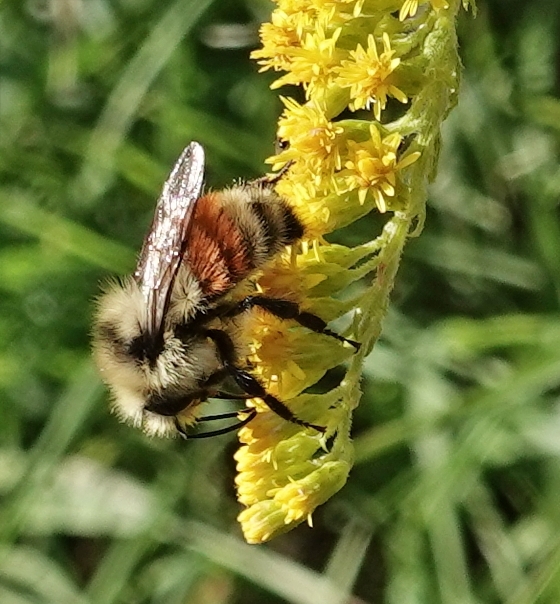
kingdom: Animalia
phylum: Arthropoda
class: Insecta
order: Hymenoptera
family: Apidae
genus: Bombus
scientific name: Bombus huntii
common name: Hunt bumble bee
